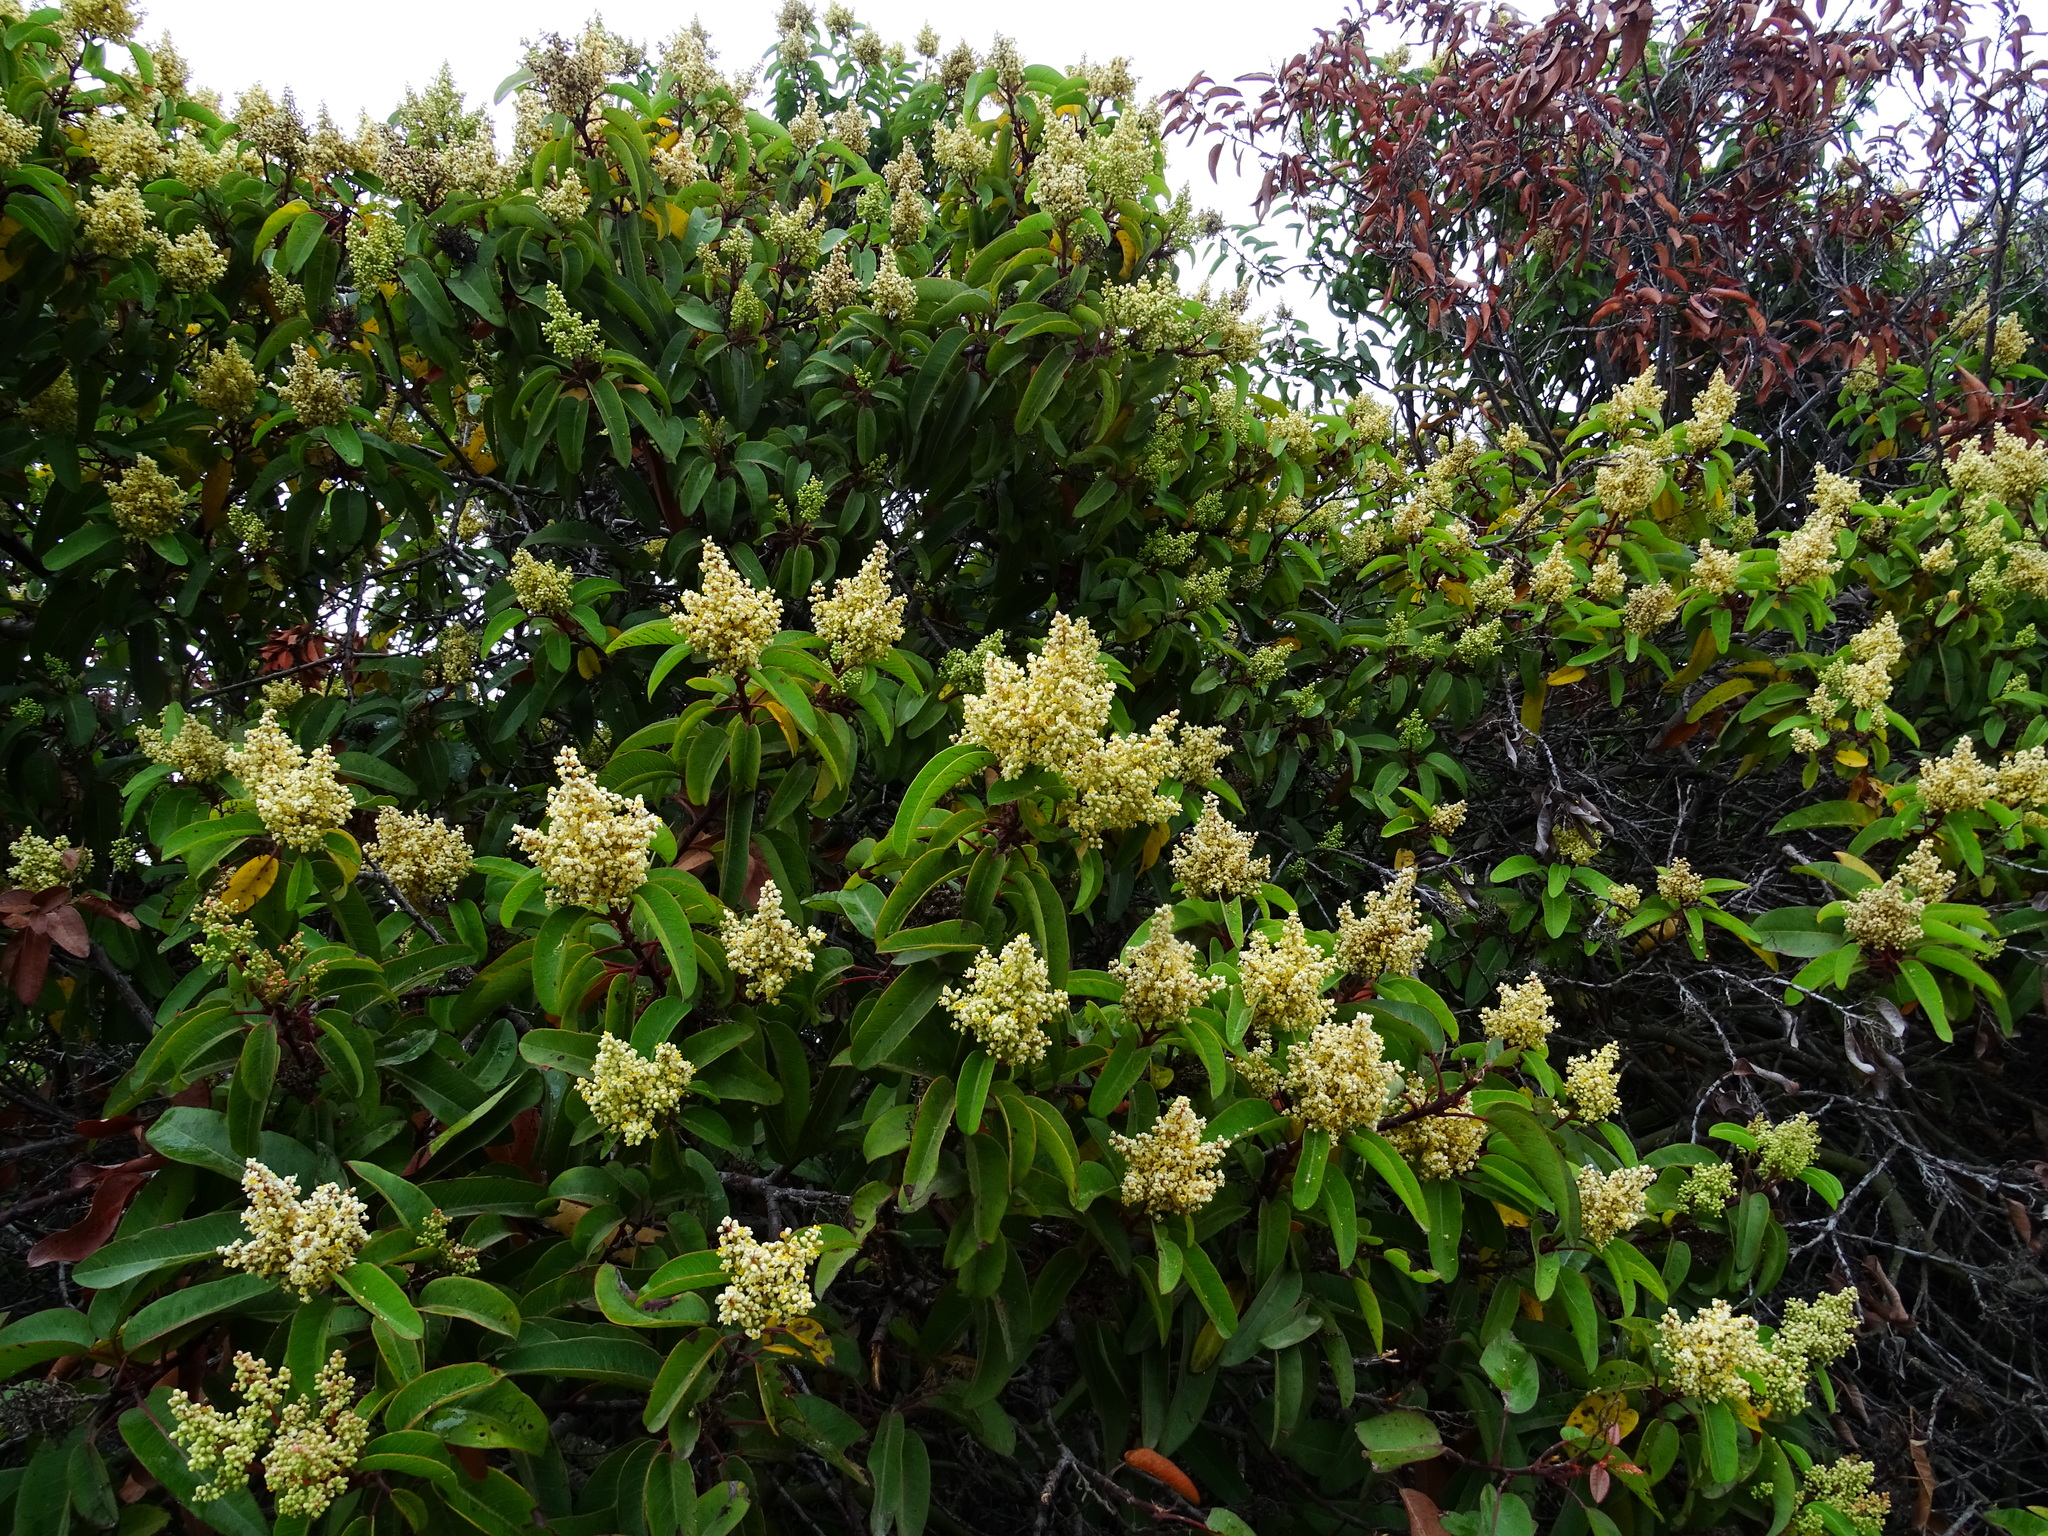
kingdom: Plantae
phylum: Tracheophyta
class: Magnoliopsida
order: Sapindales
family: Anacardiaceae
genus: Malosma
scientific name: Malosma laurina
